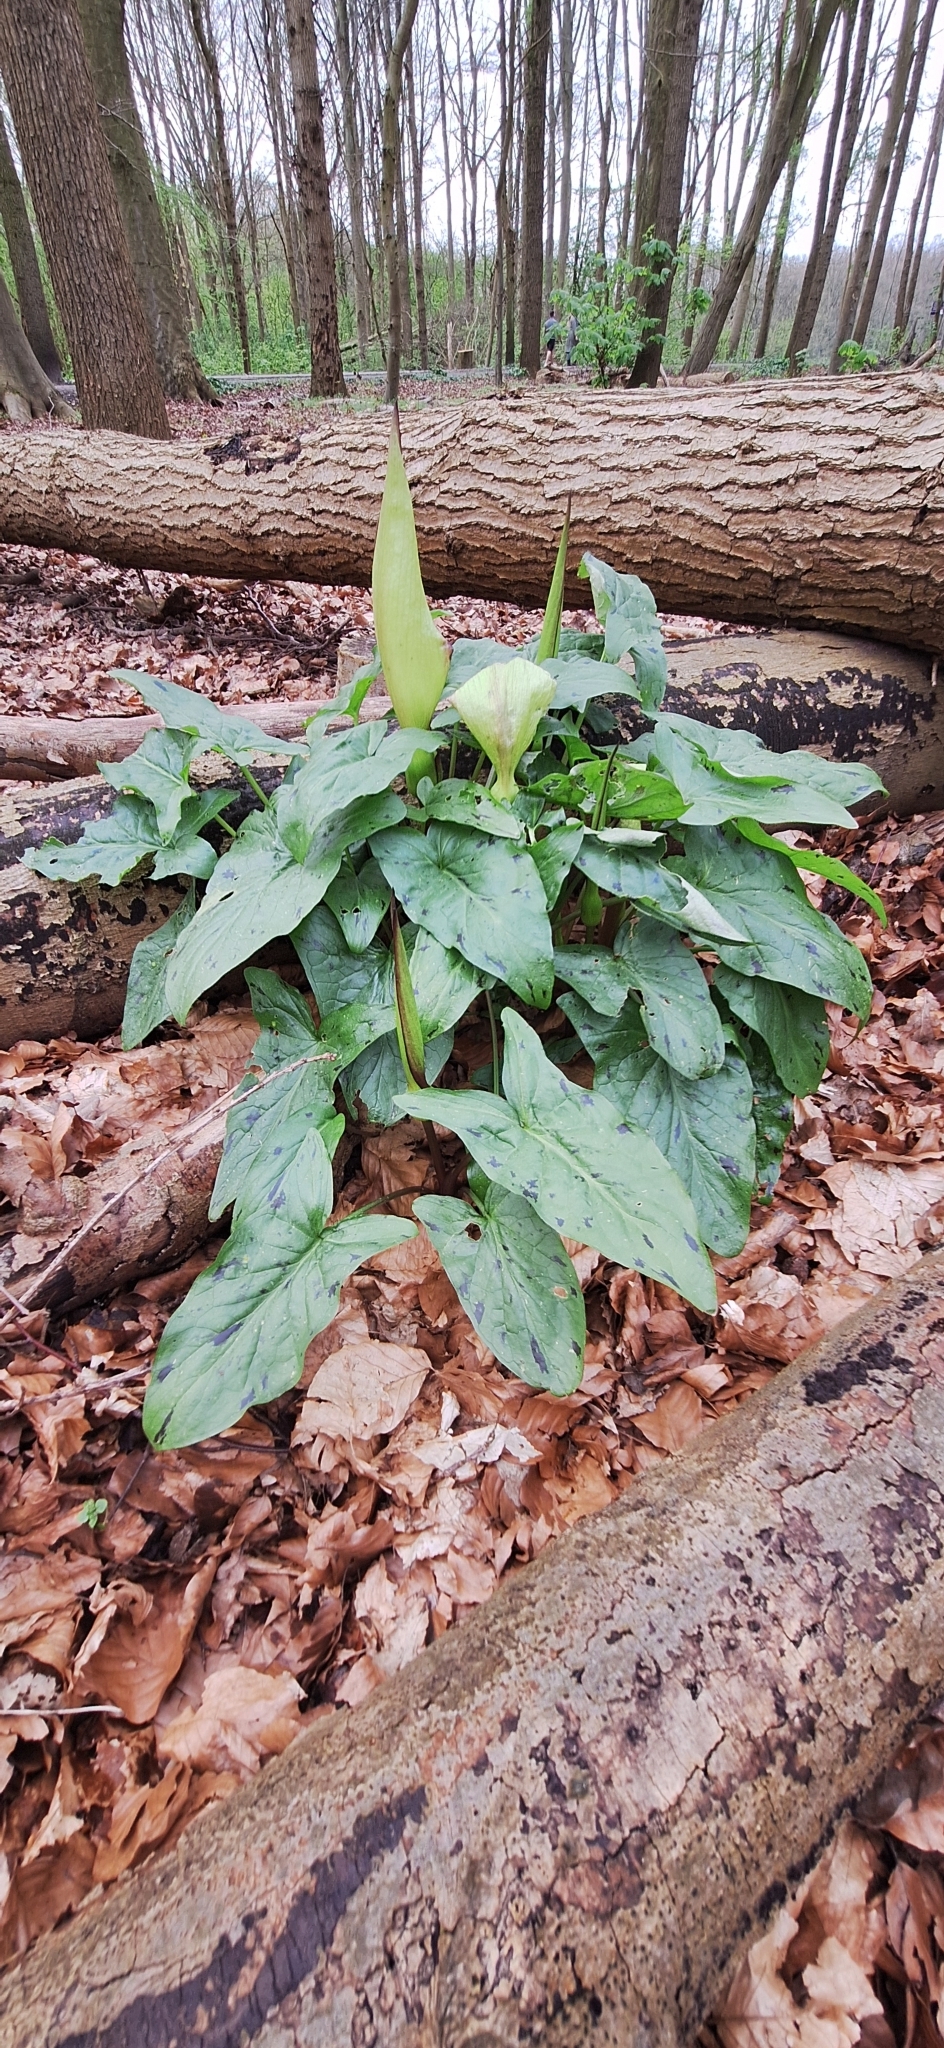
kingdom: Plantae
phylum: Tracheophyta
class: Liliopsida
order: Alismatales
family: Araceae
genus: Arum
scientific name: Arum maculatum
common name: Lords-and-ladies
